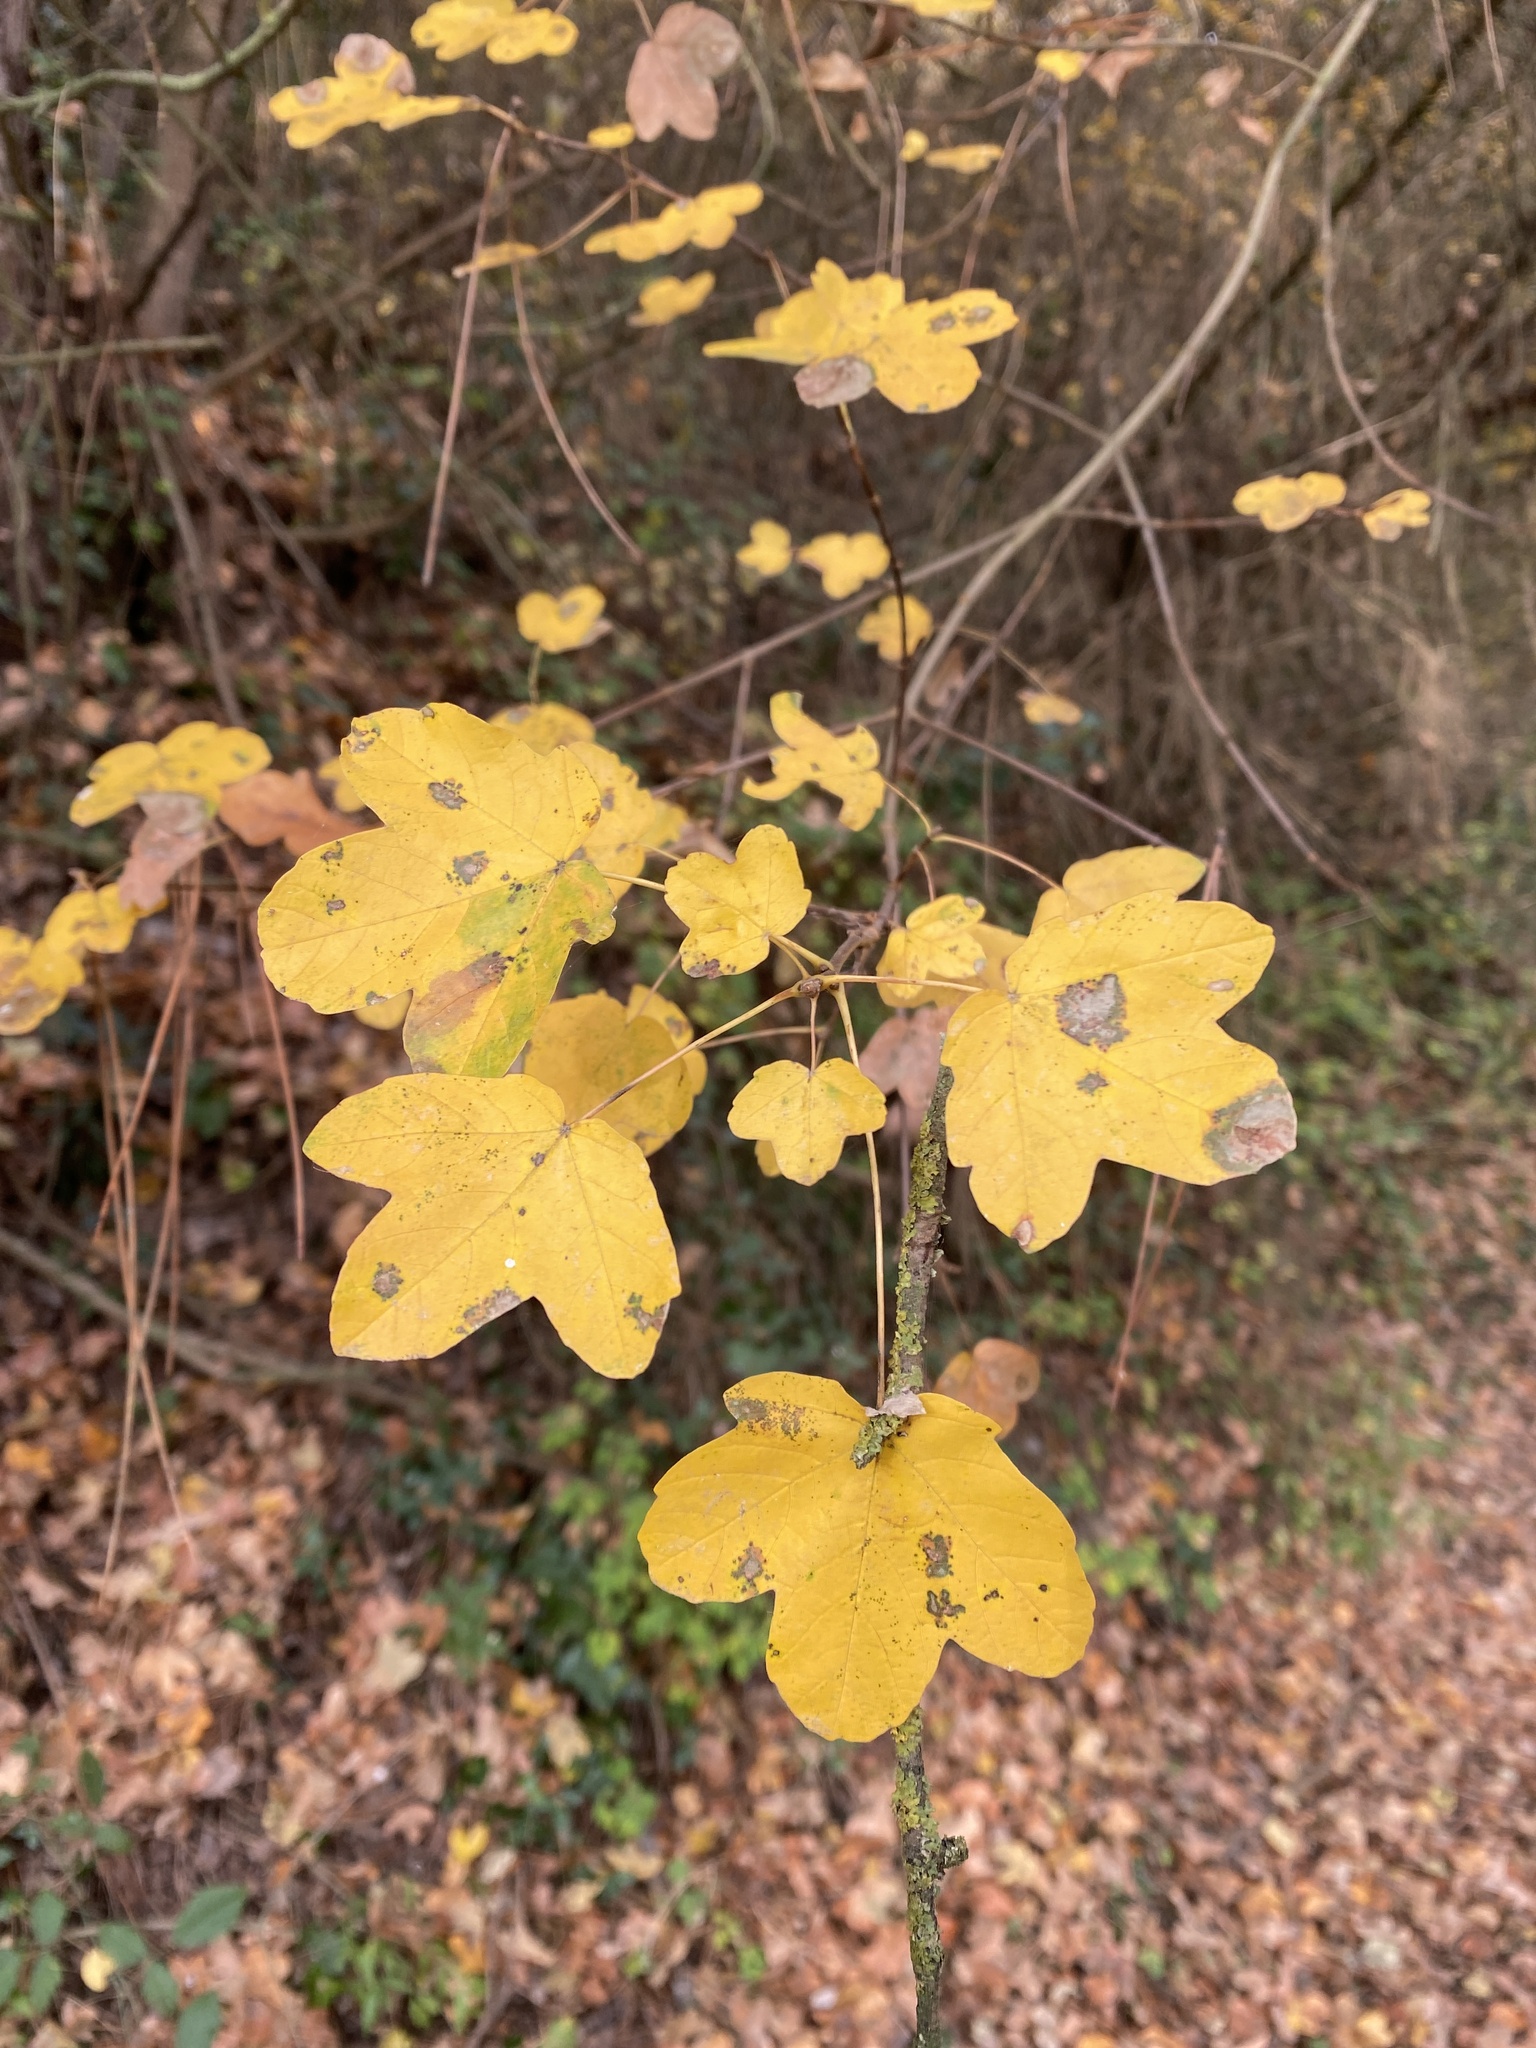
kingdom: Plantae
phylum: Tracheophyta
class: Magnoliopsida
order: Sapindales
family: Sapindaceae
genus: Acer
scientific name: Acer campestre
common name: Field maple
